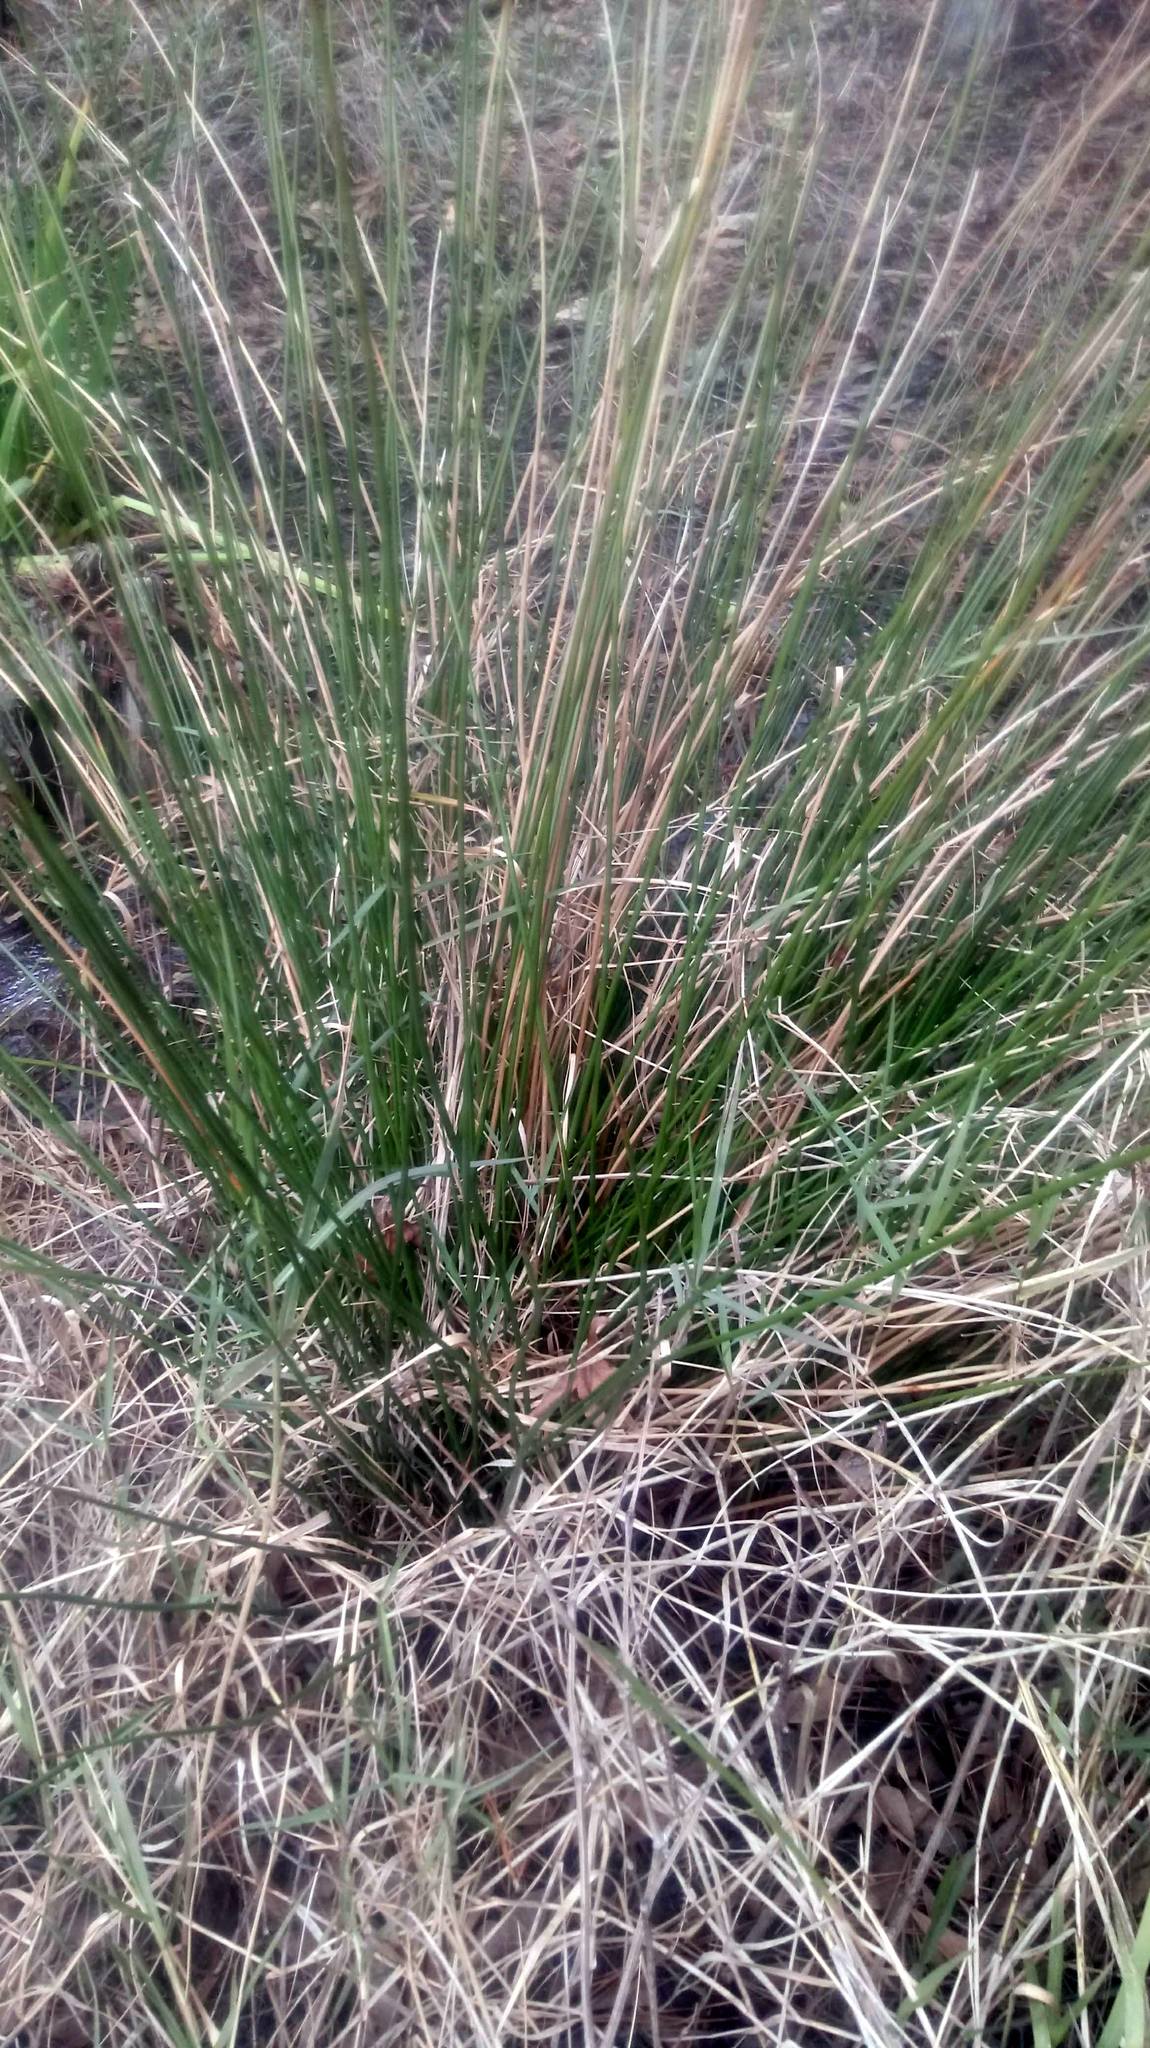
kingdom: Plantae
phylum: Tracheophyta
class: Liliopsida
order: Poales
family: Juncaceae
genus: Juncus
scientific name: Juncus effusus
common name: Soft rush
